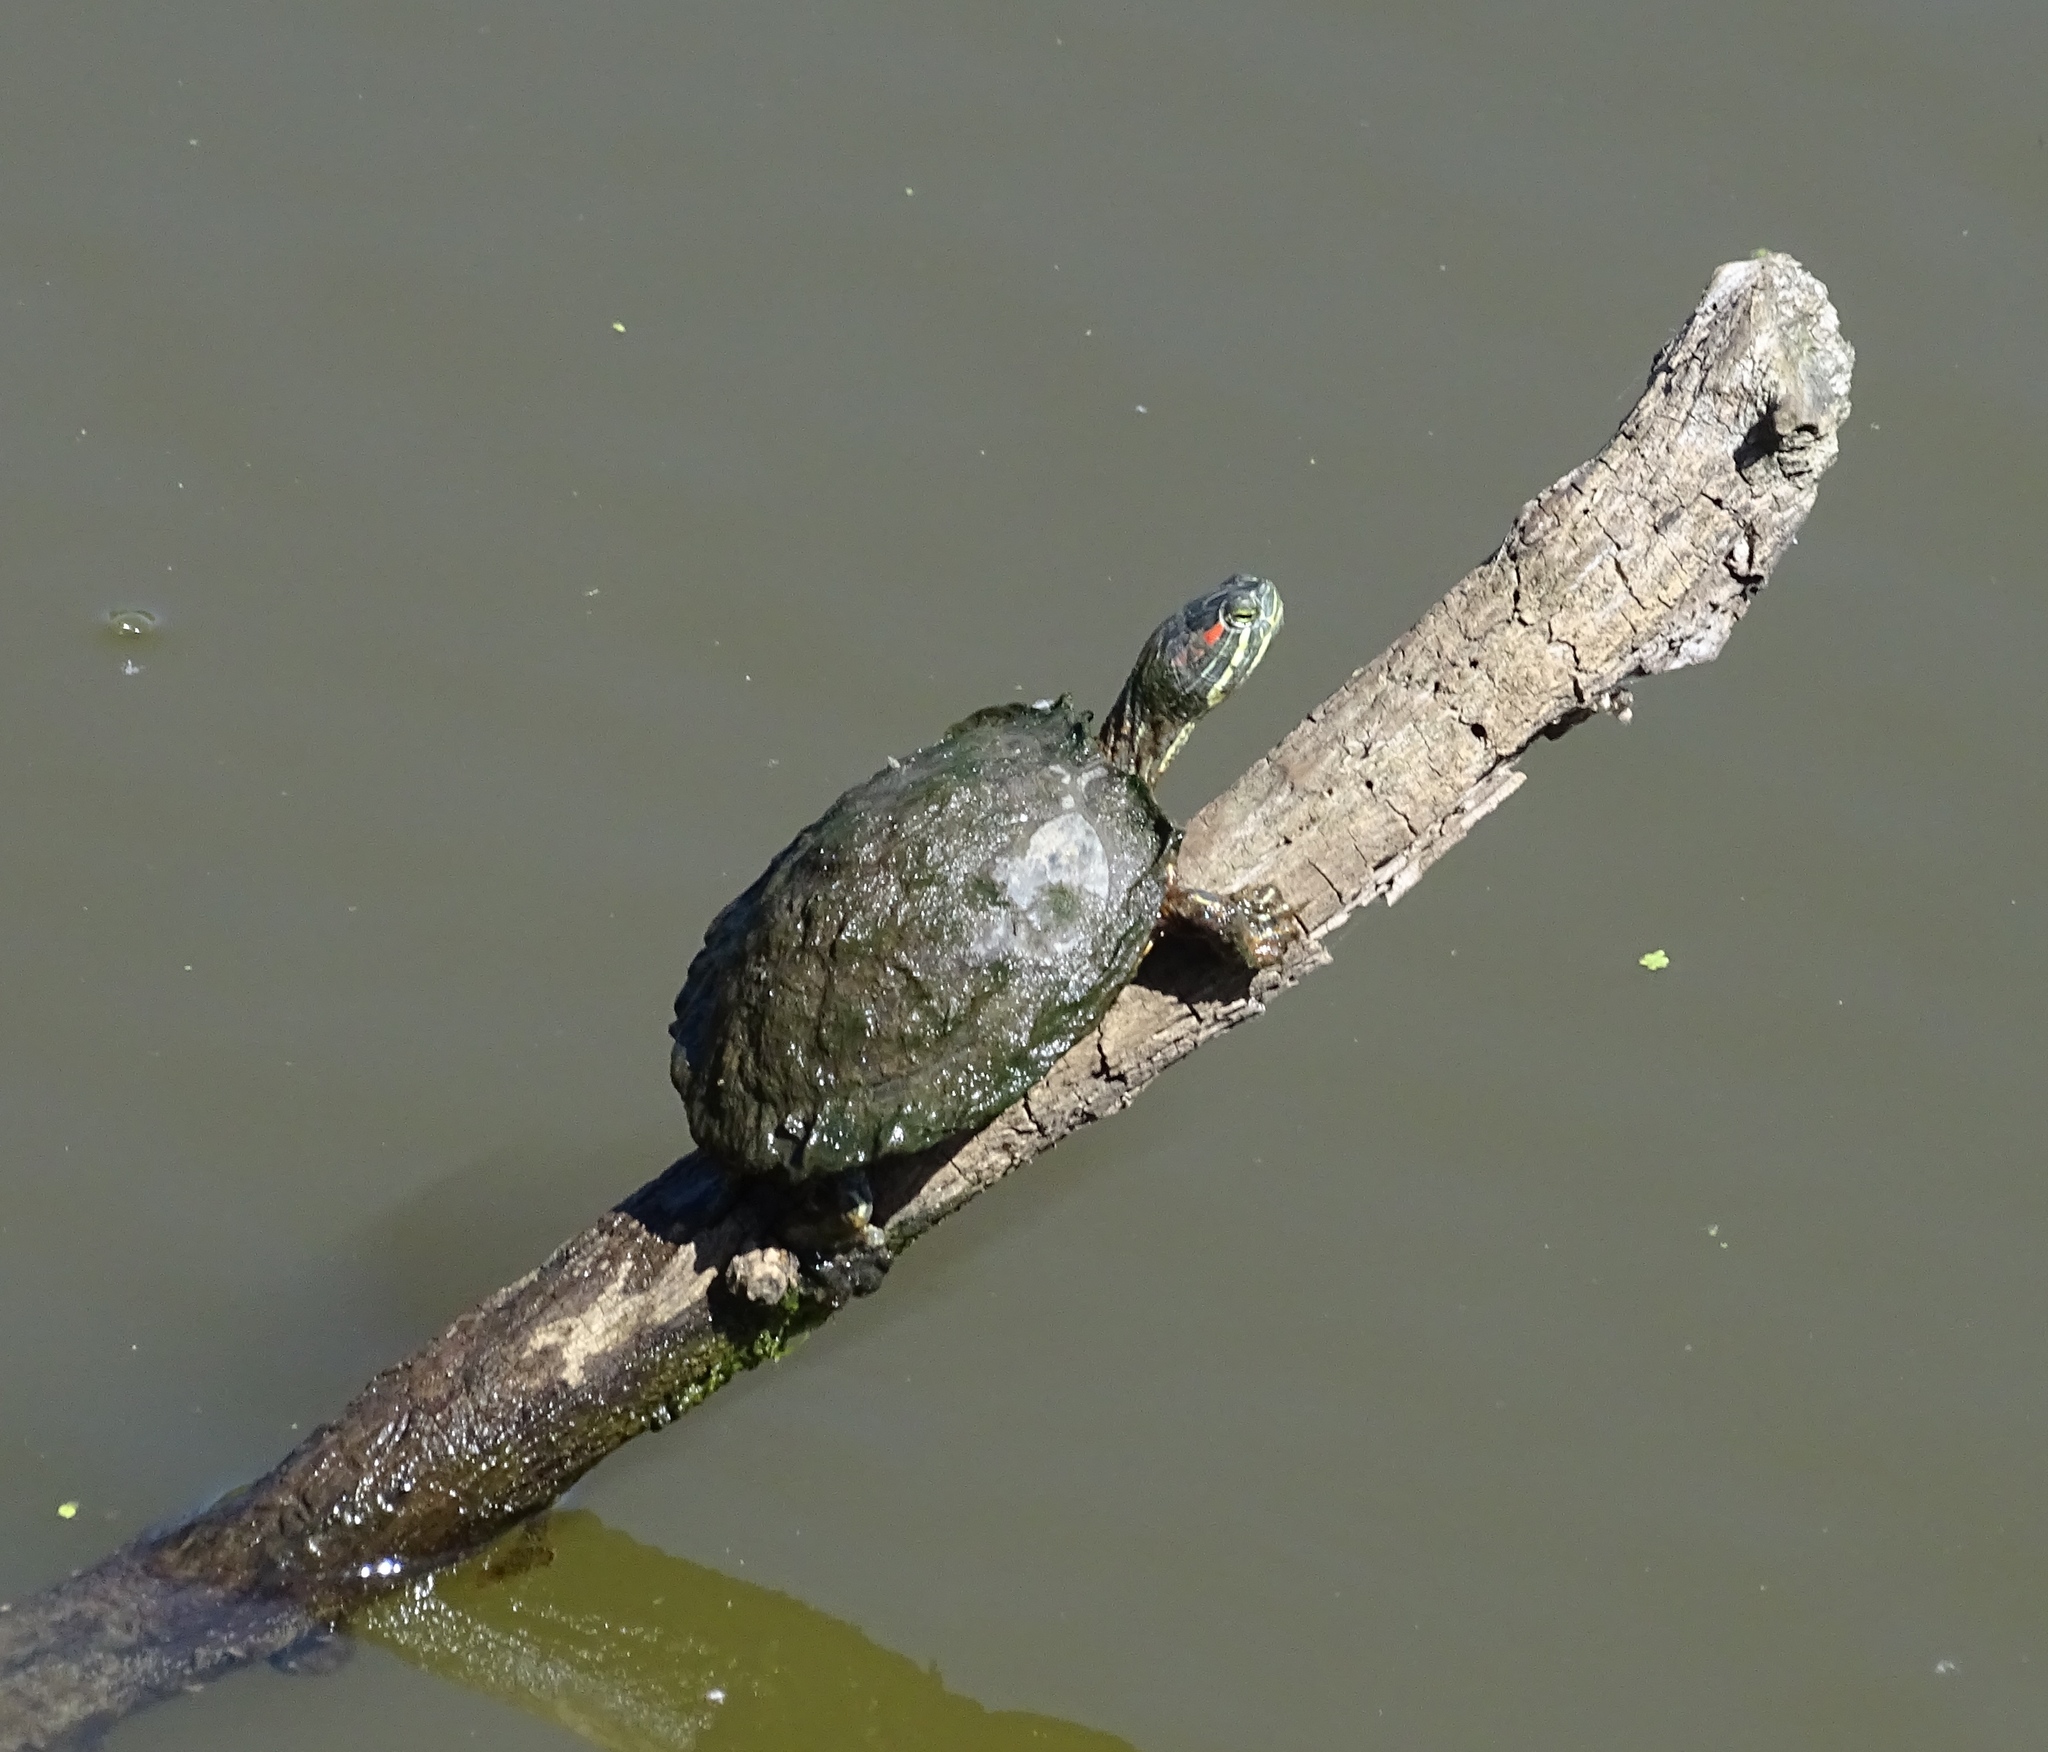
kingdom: Animalia
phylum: Chordata
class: Testudines
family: Emydidae
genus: Trachemys
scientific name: Trachemys scripta
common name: Slider
